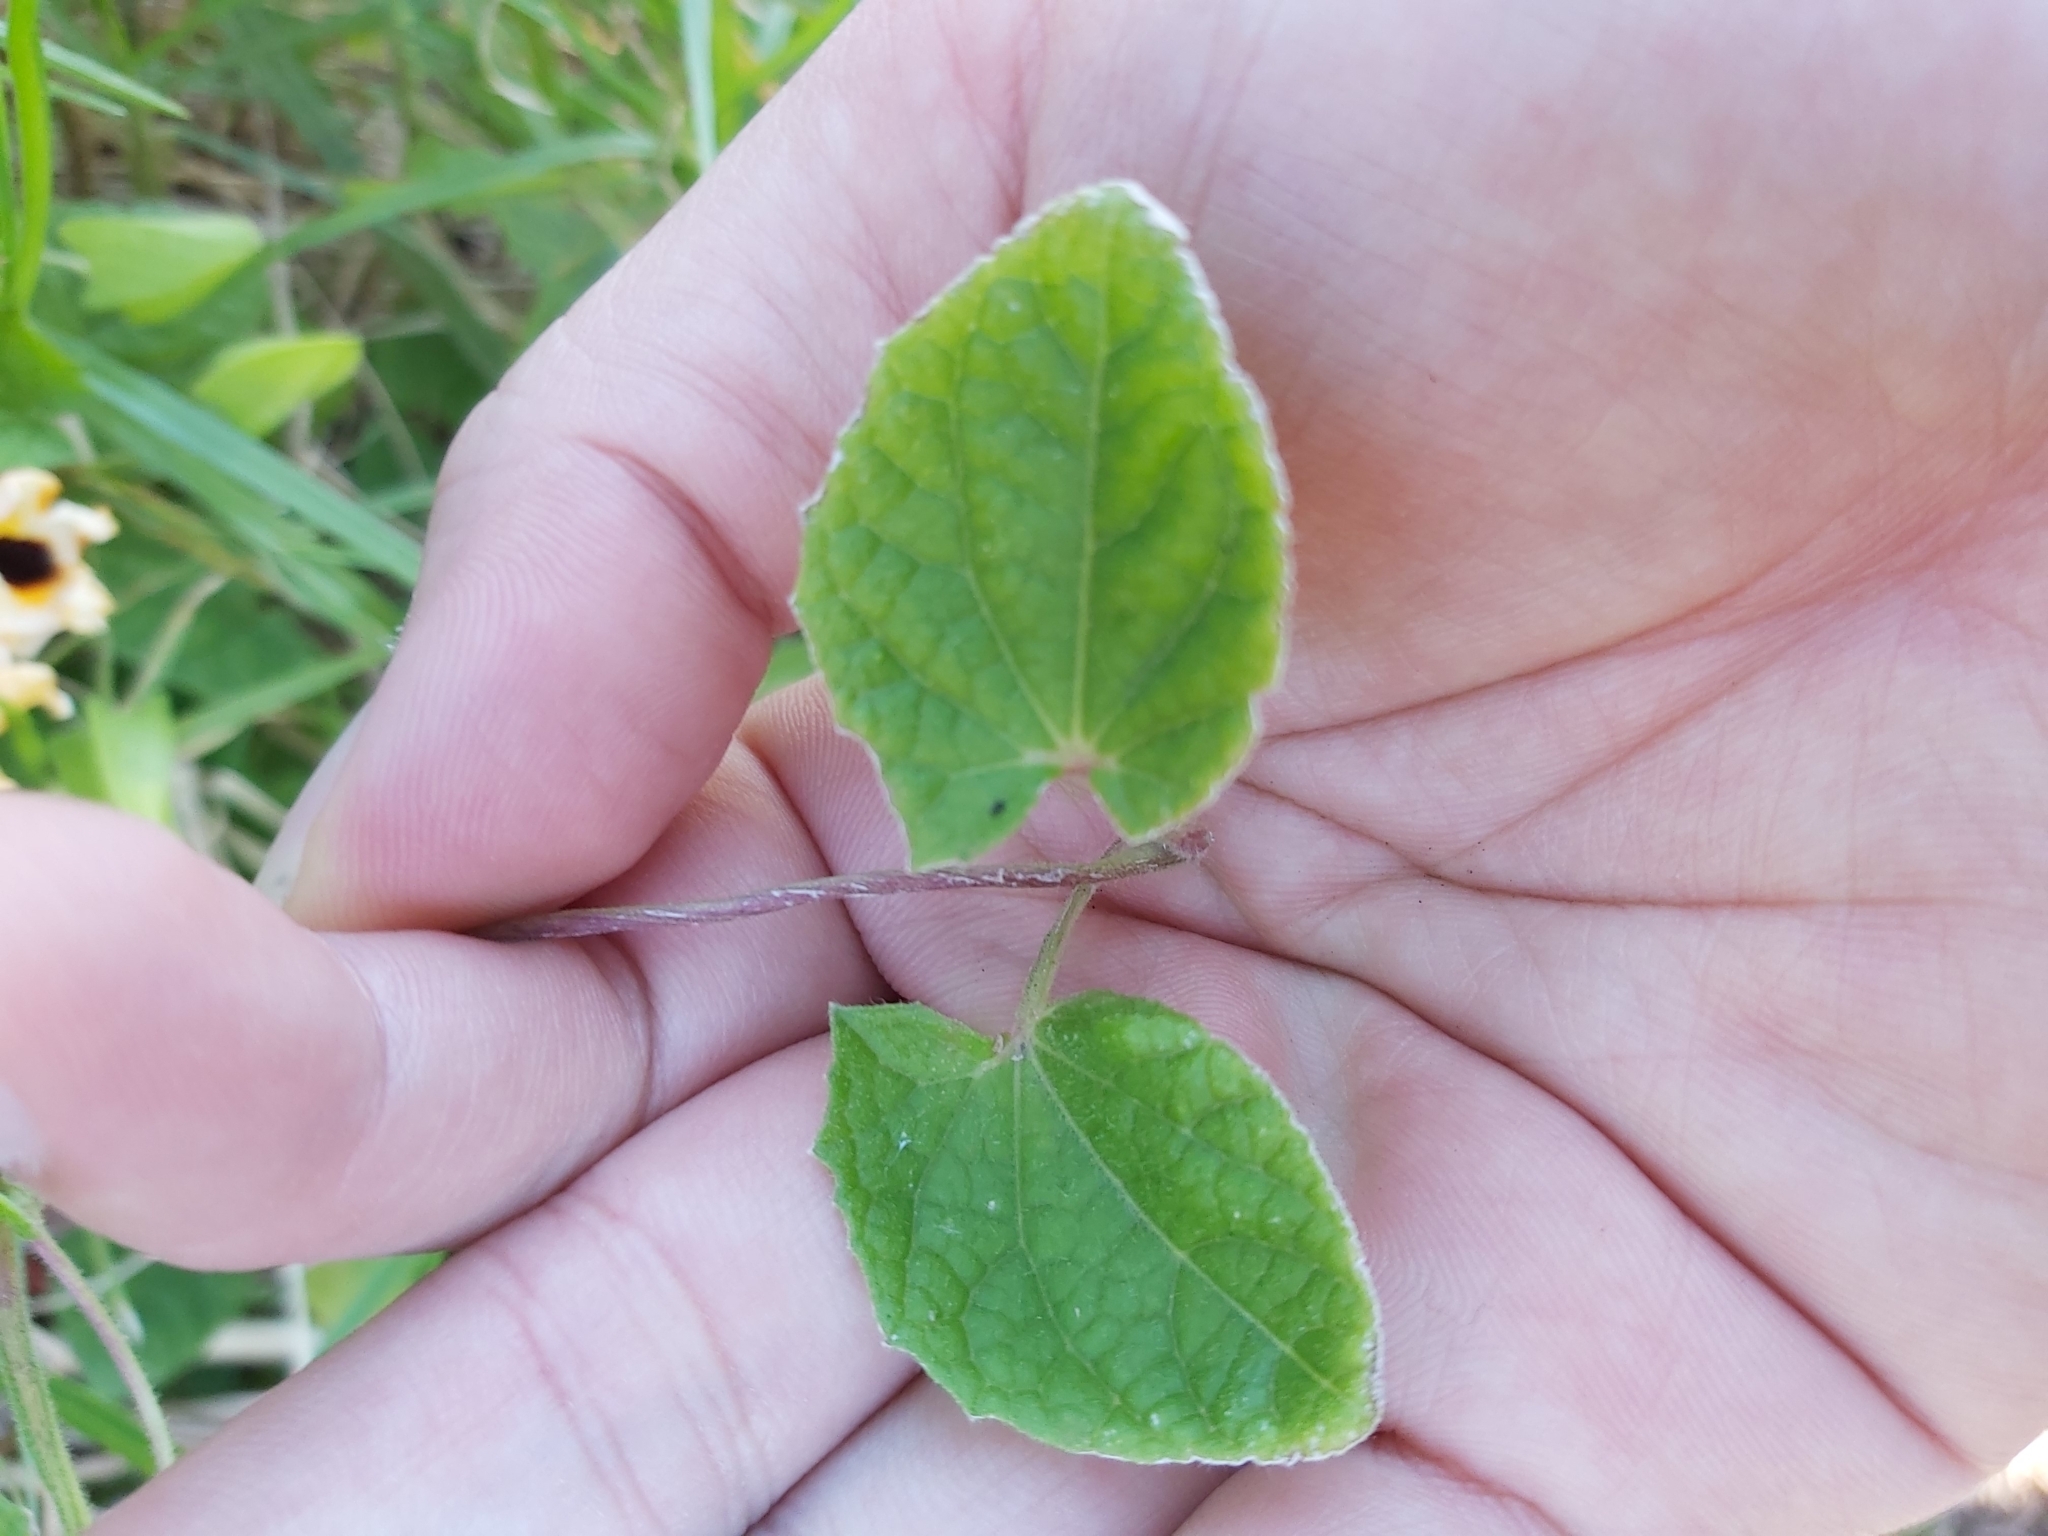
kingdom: Plantae
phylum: Tracheophyta
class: Magnoliopsida
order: Lamiales
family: Acanthaceae
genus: Thunbergia
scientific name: Thunbergia alata
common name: Blackeyed susan vine
